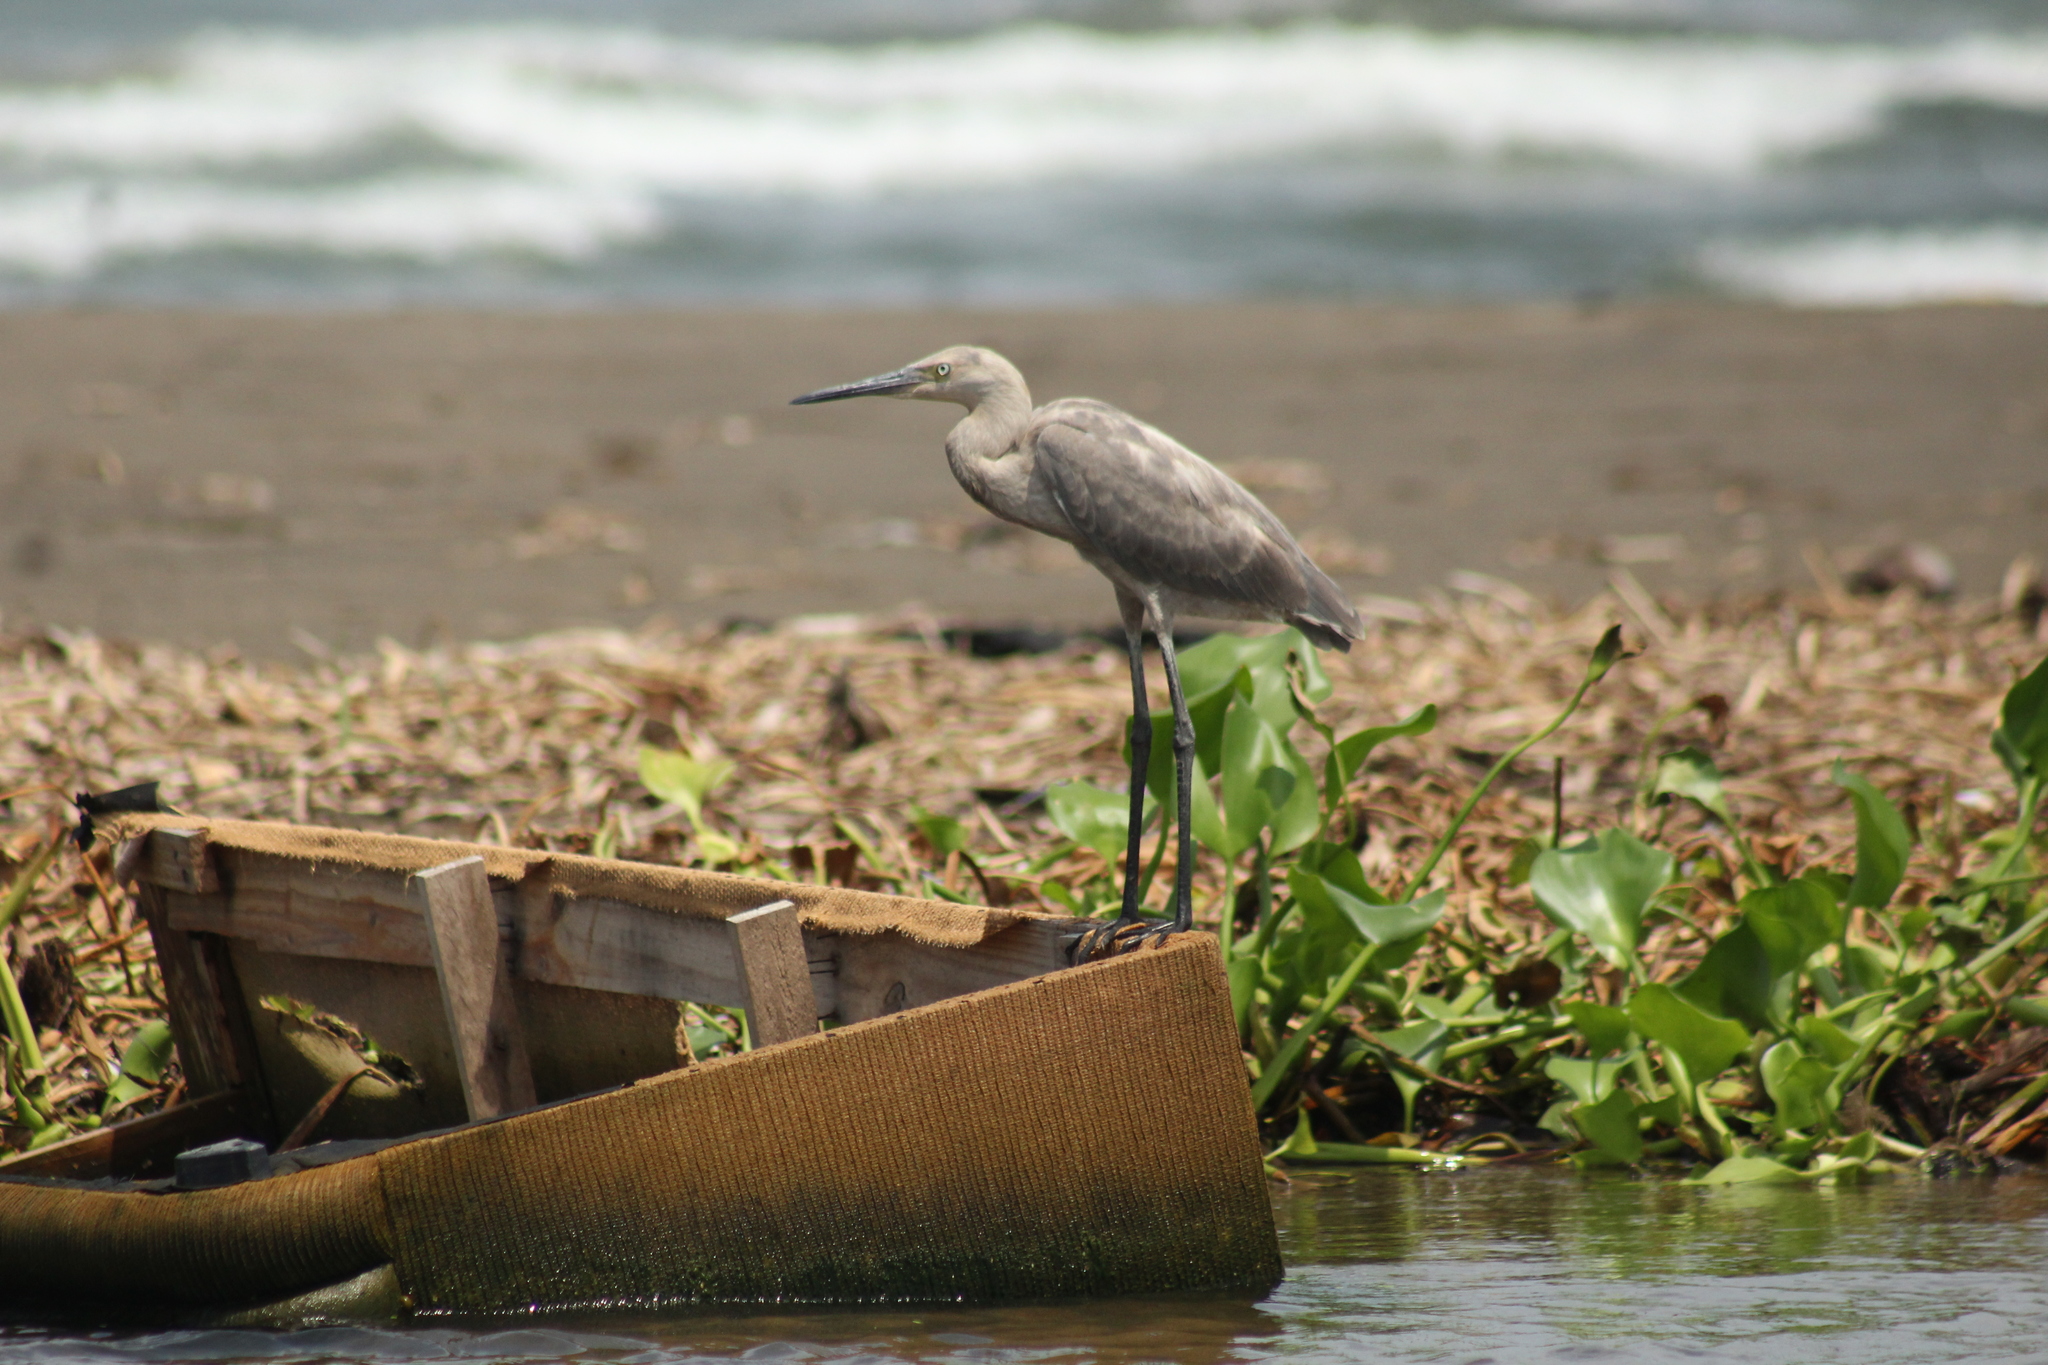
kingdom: Animalia
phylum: Chordata
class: Aves
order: Pelecaniformes
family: Ardeidae
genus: Egretta
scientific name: Egretta rufescens
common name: Reddish egret
